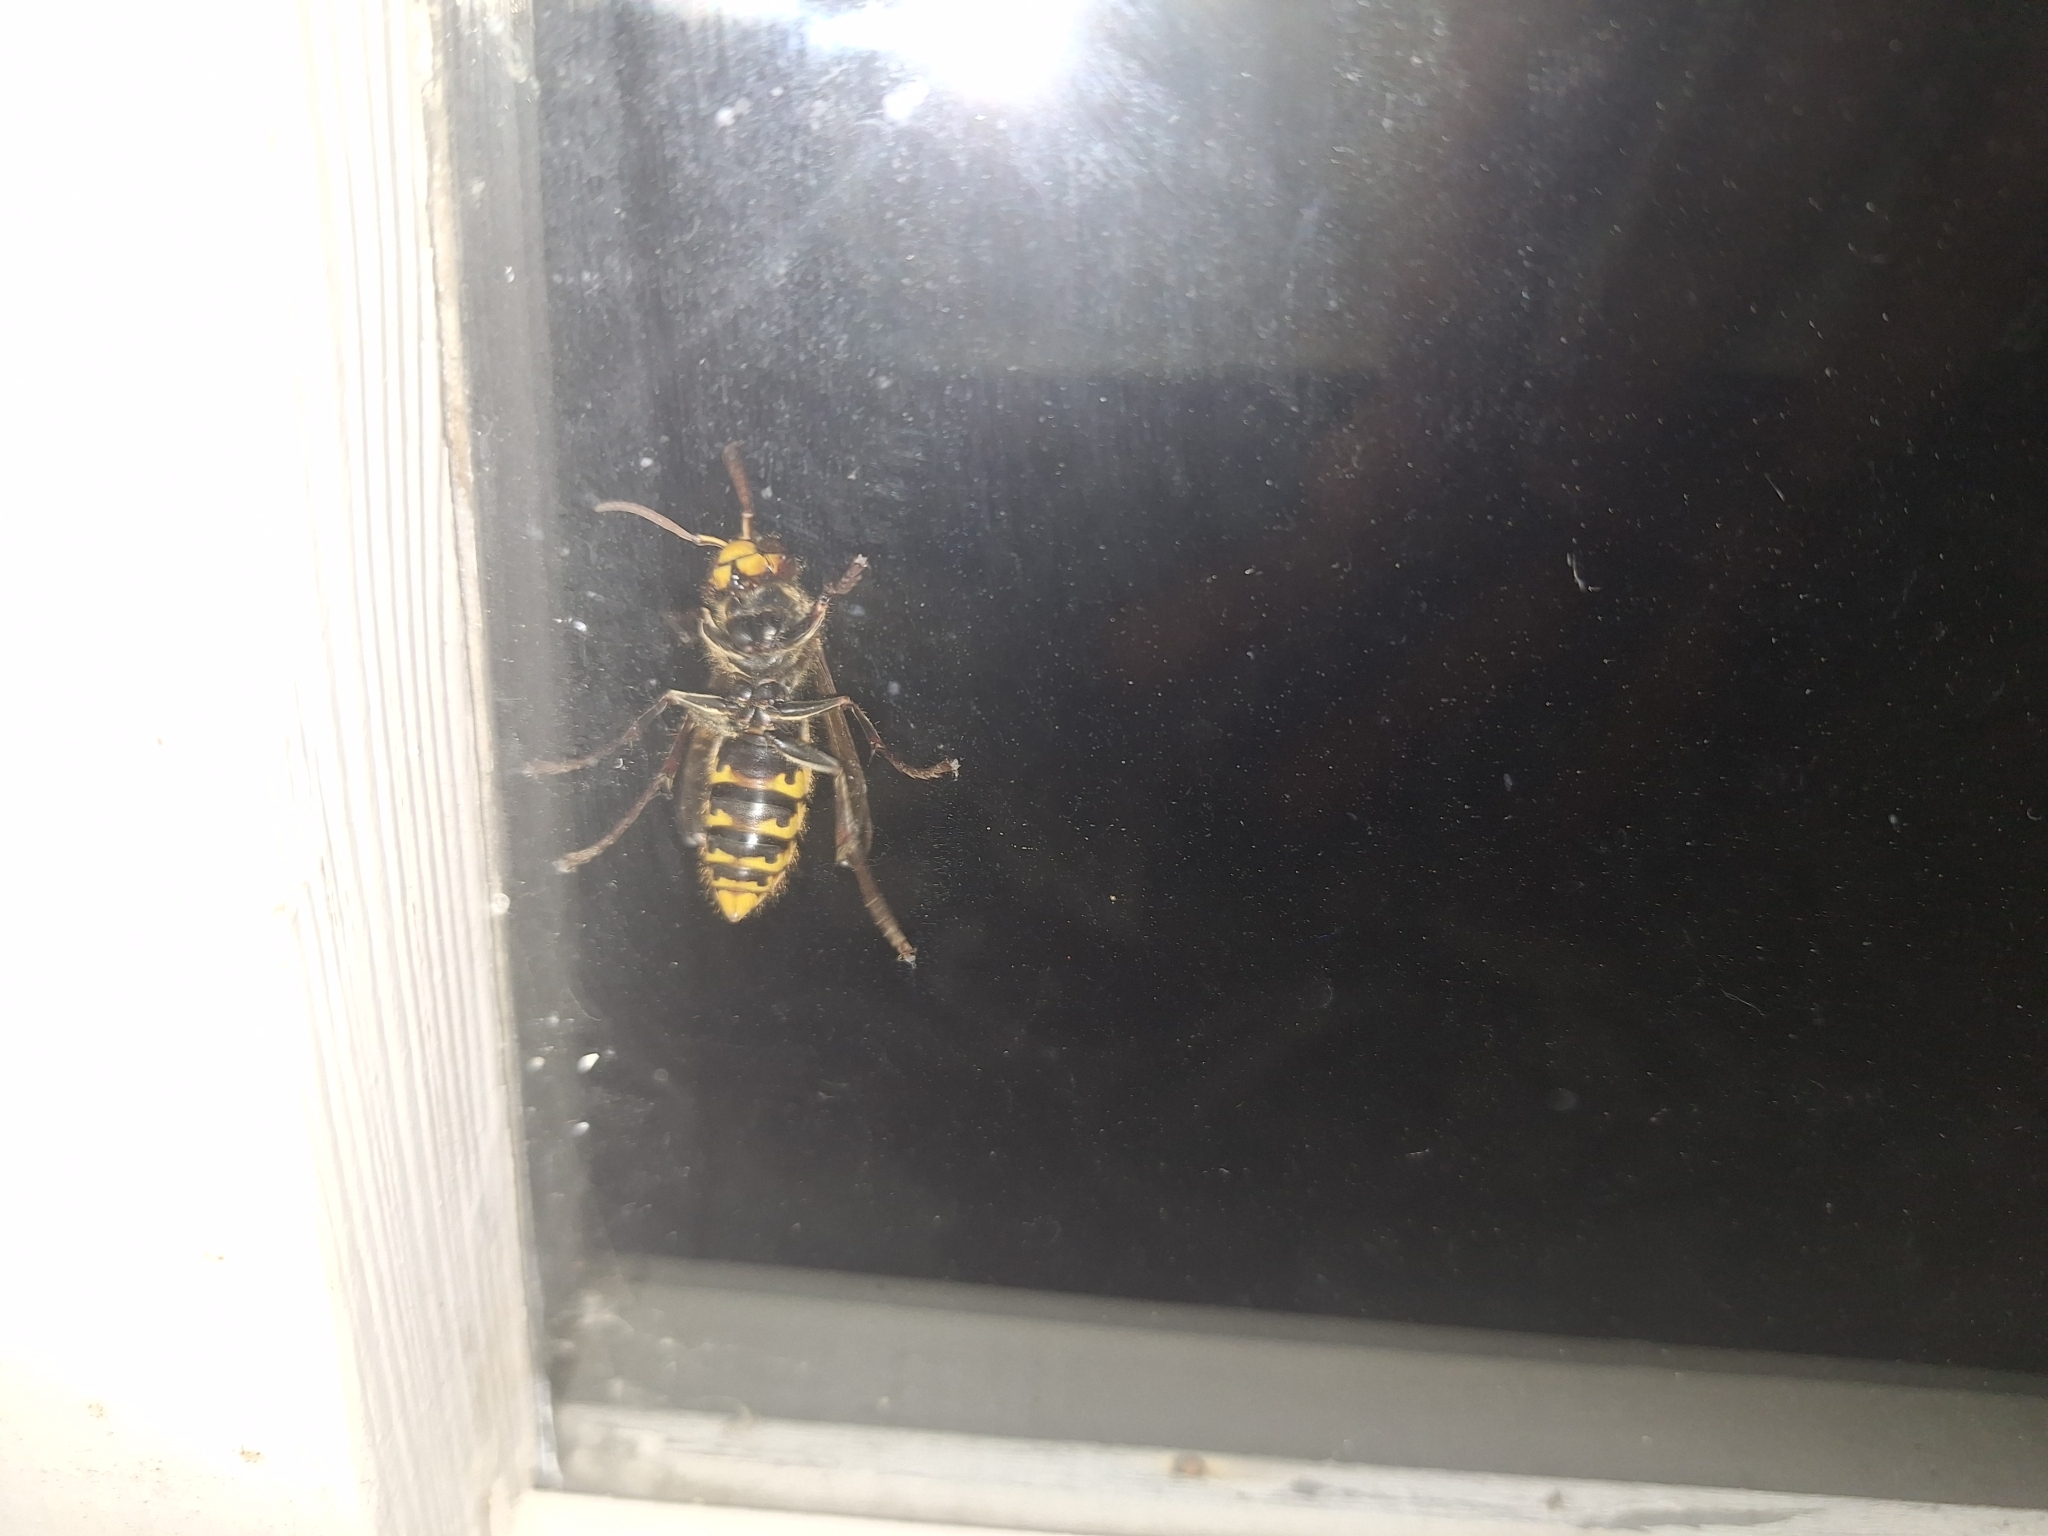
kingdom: Animalia
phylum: Arthropoda
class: Insecta
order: Hymenoptera
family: Vespidae
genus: Vespa
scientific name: Vespa crabro
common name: Hornet
